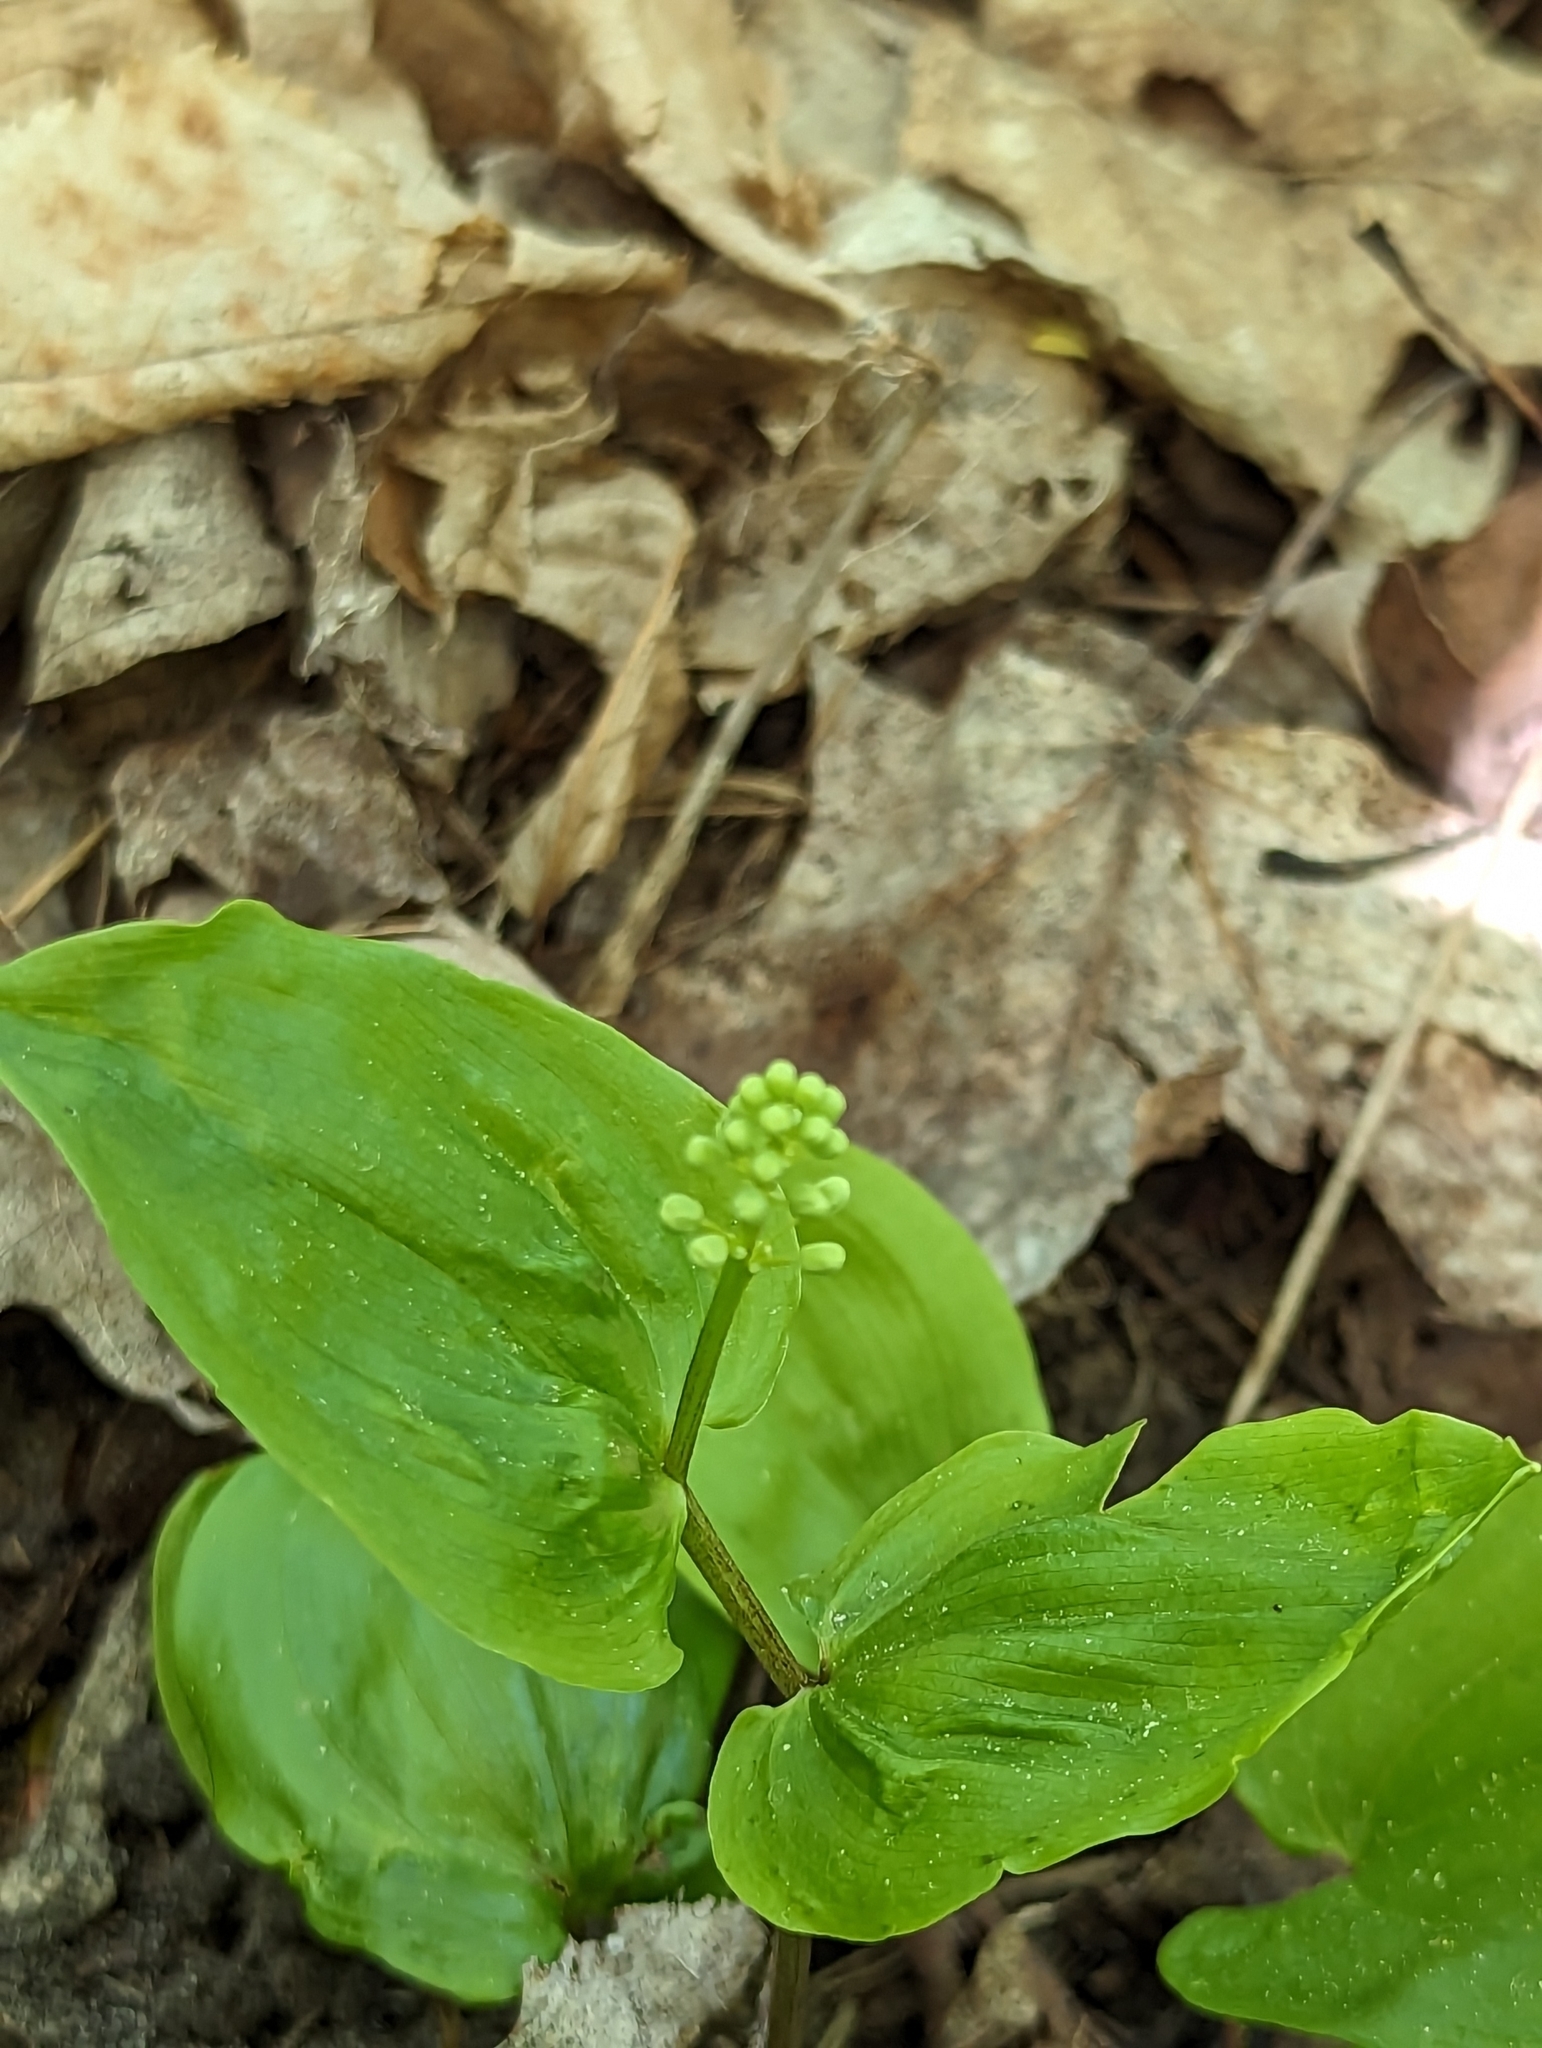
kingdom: Plantae
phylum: Tracheophyta
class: Liliopsida
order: Asparagales
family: Asparagaceae
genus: Maianthemum
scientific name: Maianthemum canadense
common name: False lily-of-the-valley
